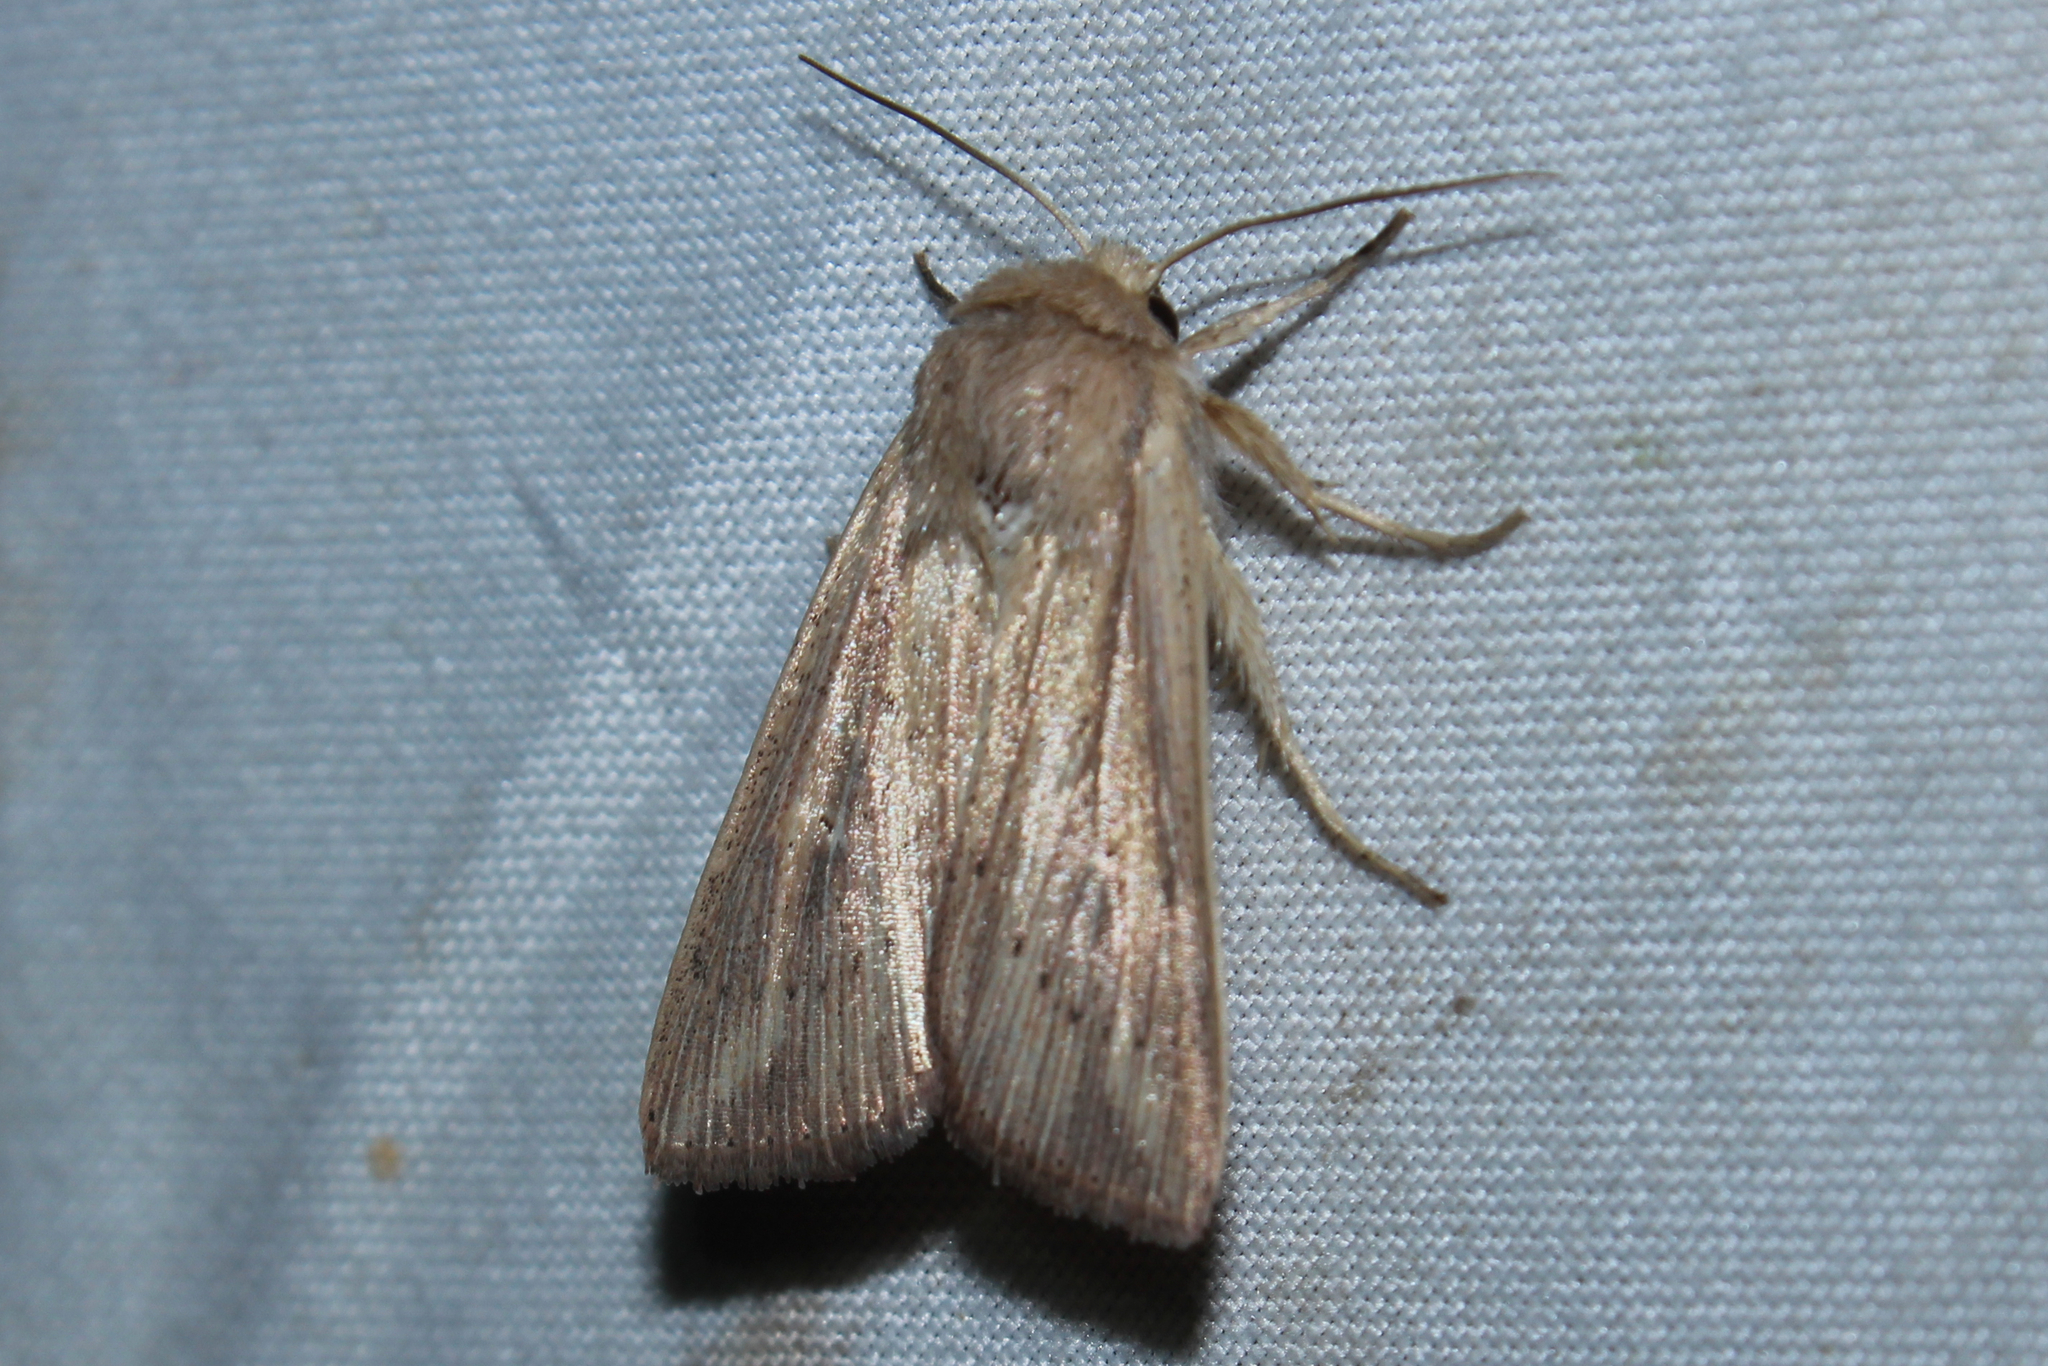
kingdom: Animalia
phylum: Arthropoda
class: Insecta
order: Lepidoptera
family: Noctuidae
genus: Leucania
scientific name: Leucania linda
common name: Linda's wainscot
